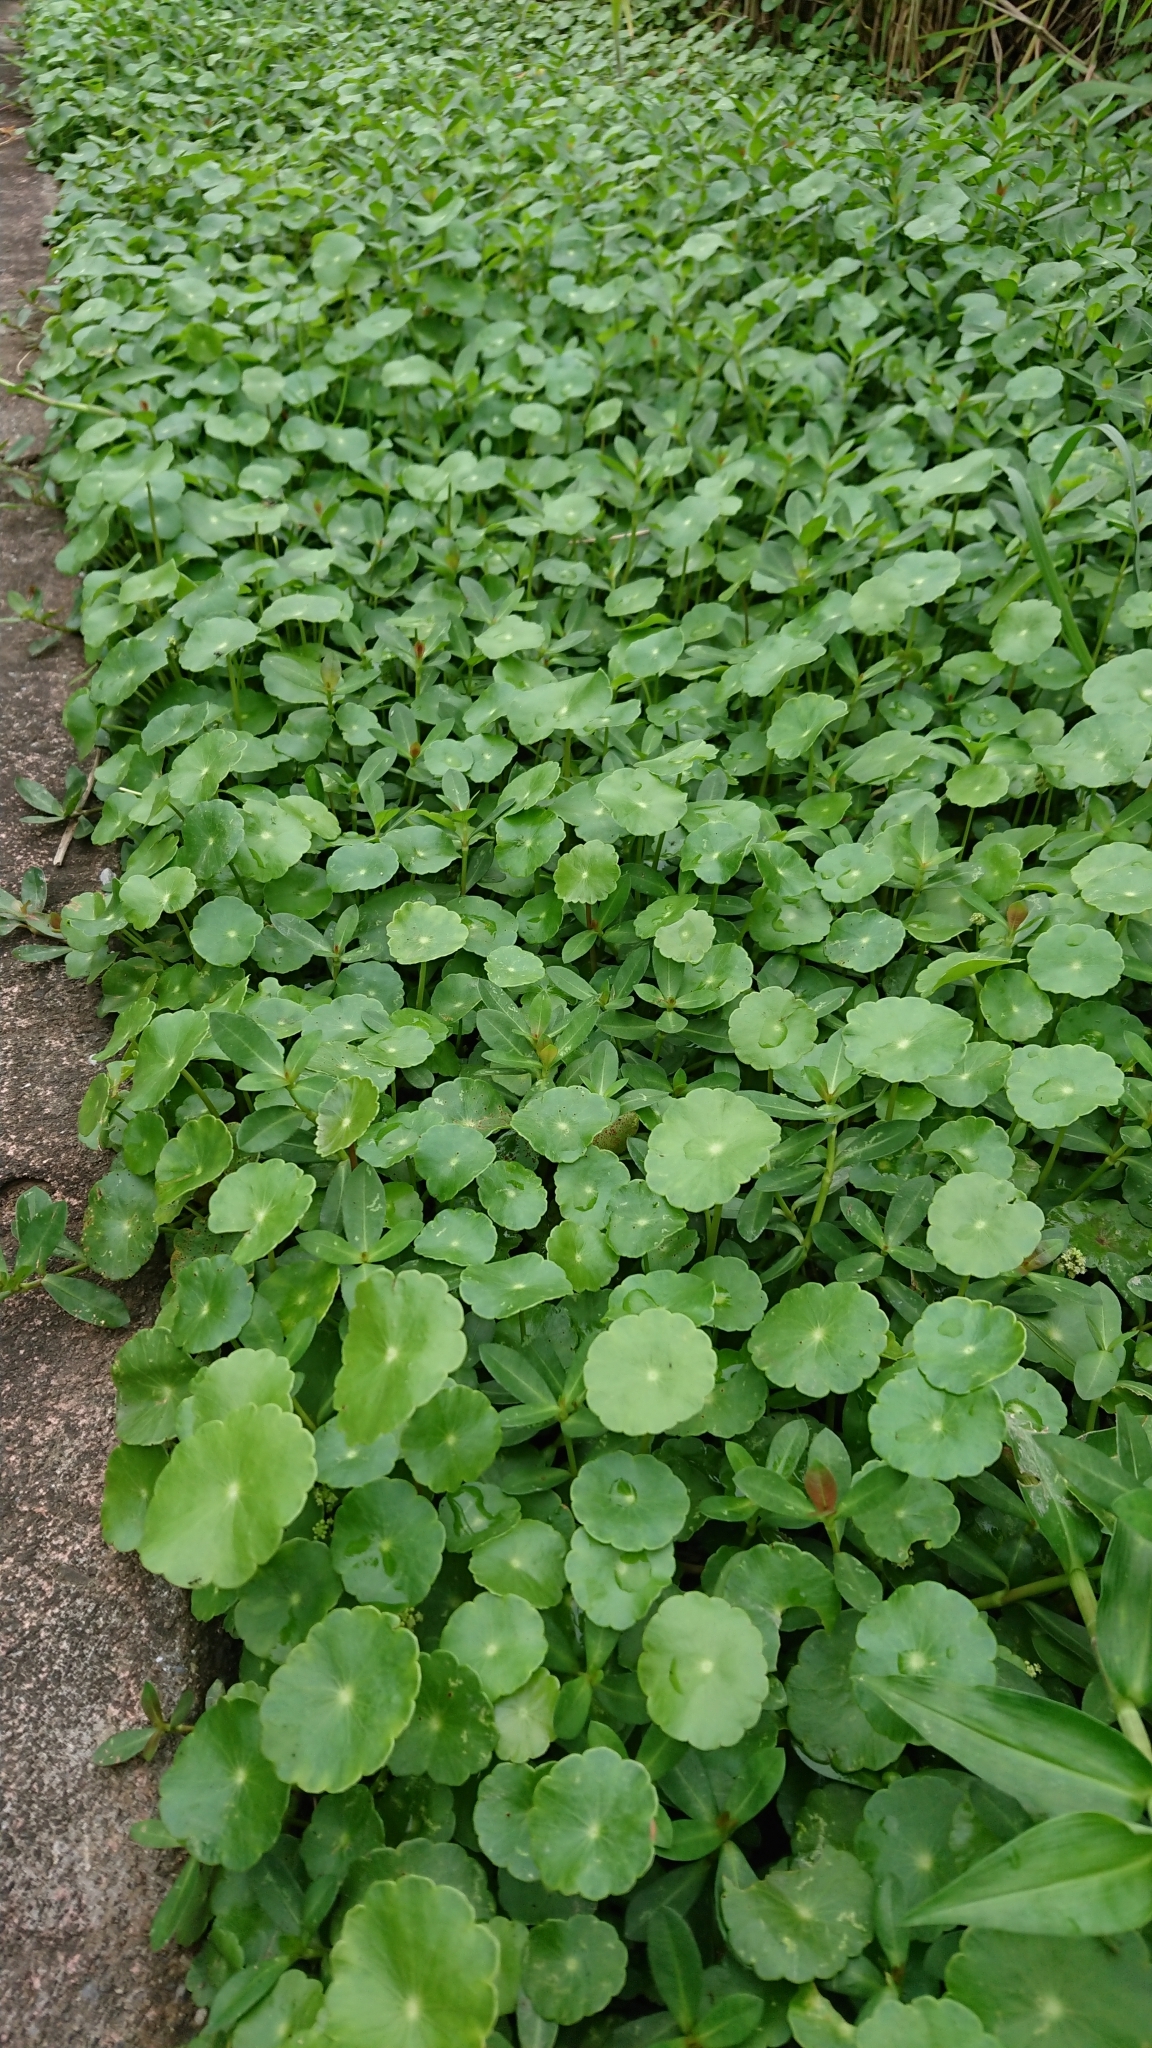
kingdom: Plantae
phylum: Tracheophyta
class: Magnoliopsida
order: Apiales
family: Araliaceae
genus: Hydrocotyle
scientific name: Hydrocotyle verticillata
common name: Whorled marshpennywort
